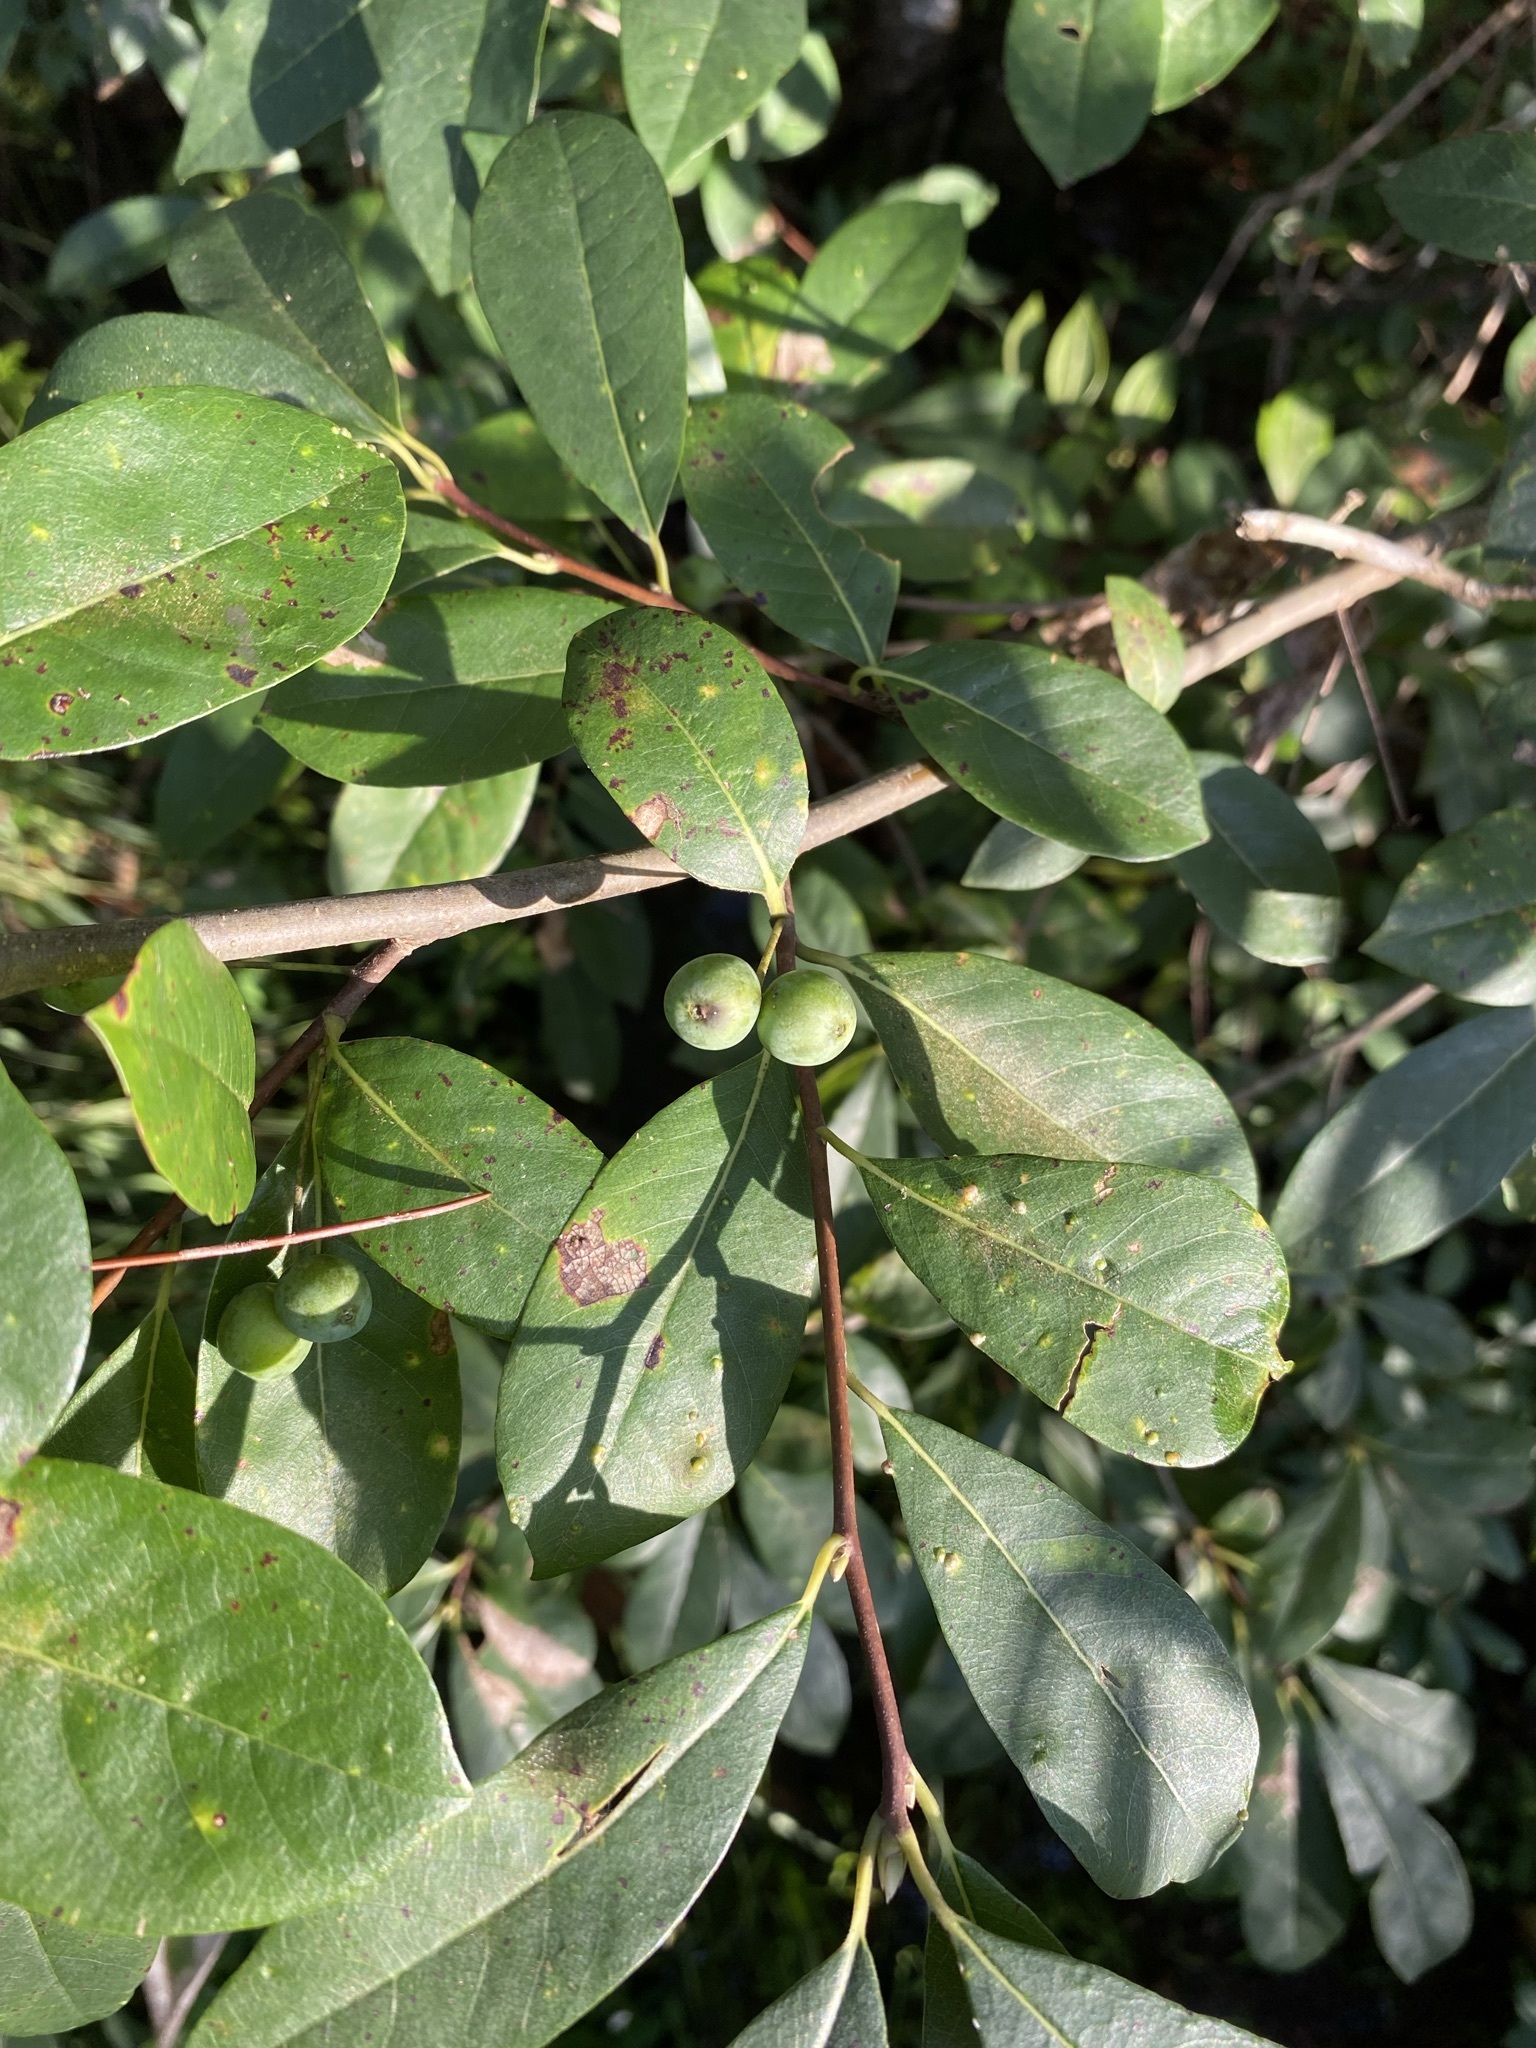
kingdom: Plantae
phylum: Tracheophyta
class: Magnoliopsida
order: Cornales
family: Nyssaceae
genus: Nyssa
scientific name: Nyssa biflora
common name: Swamp blackgum
